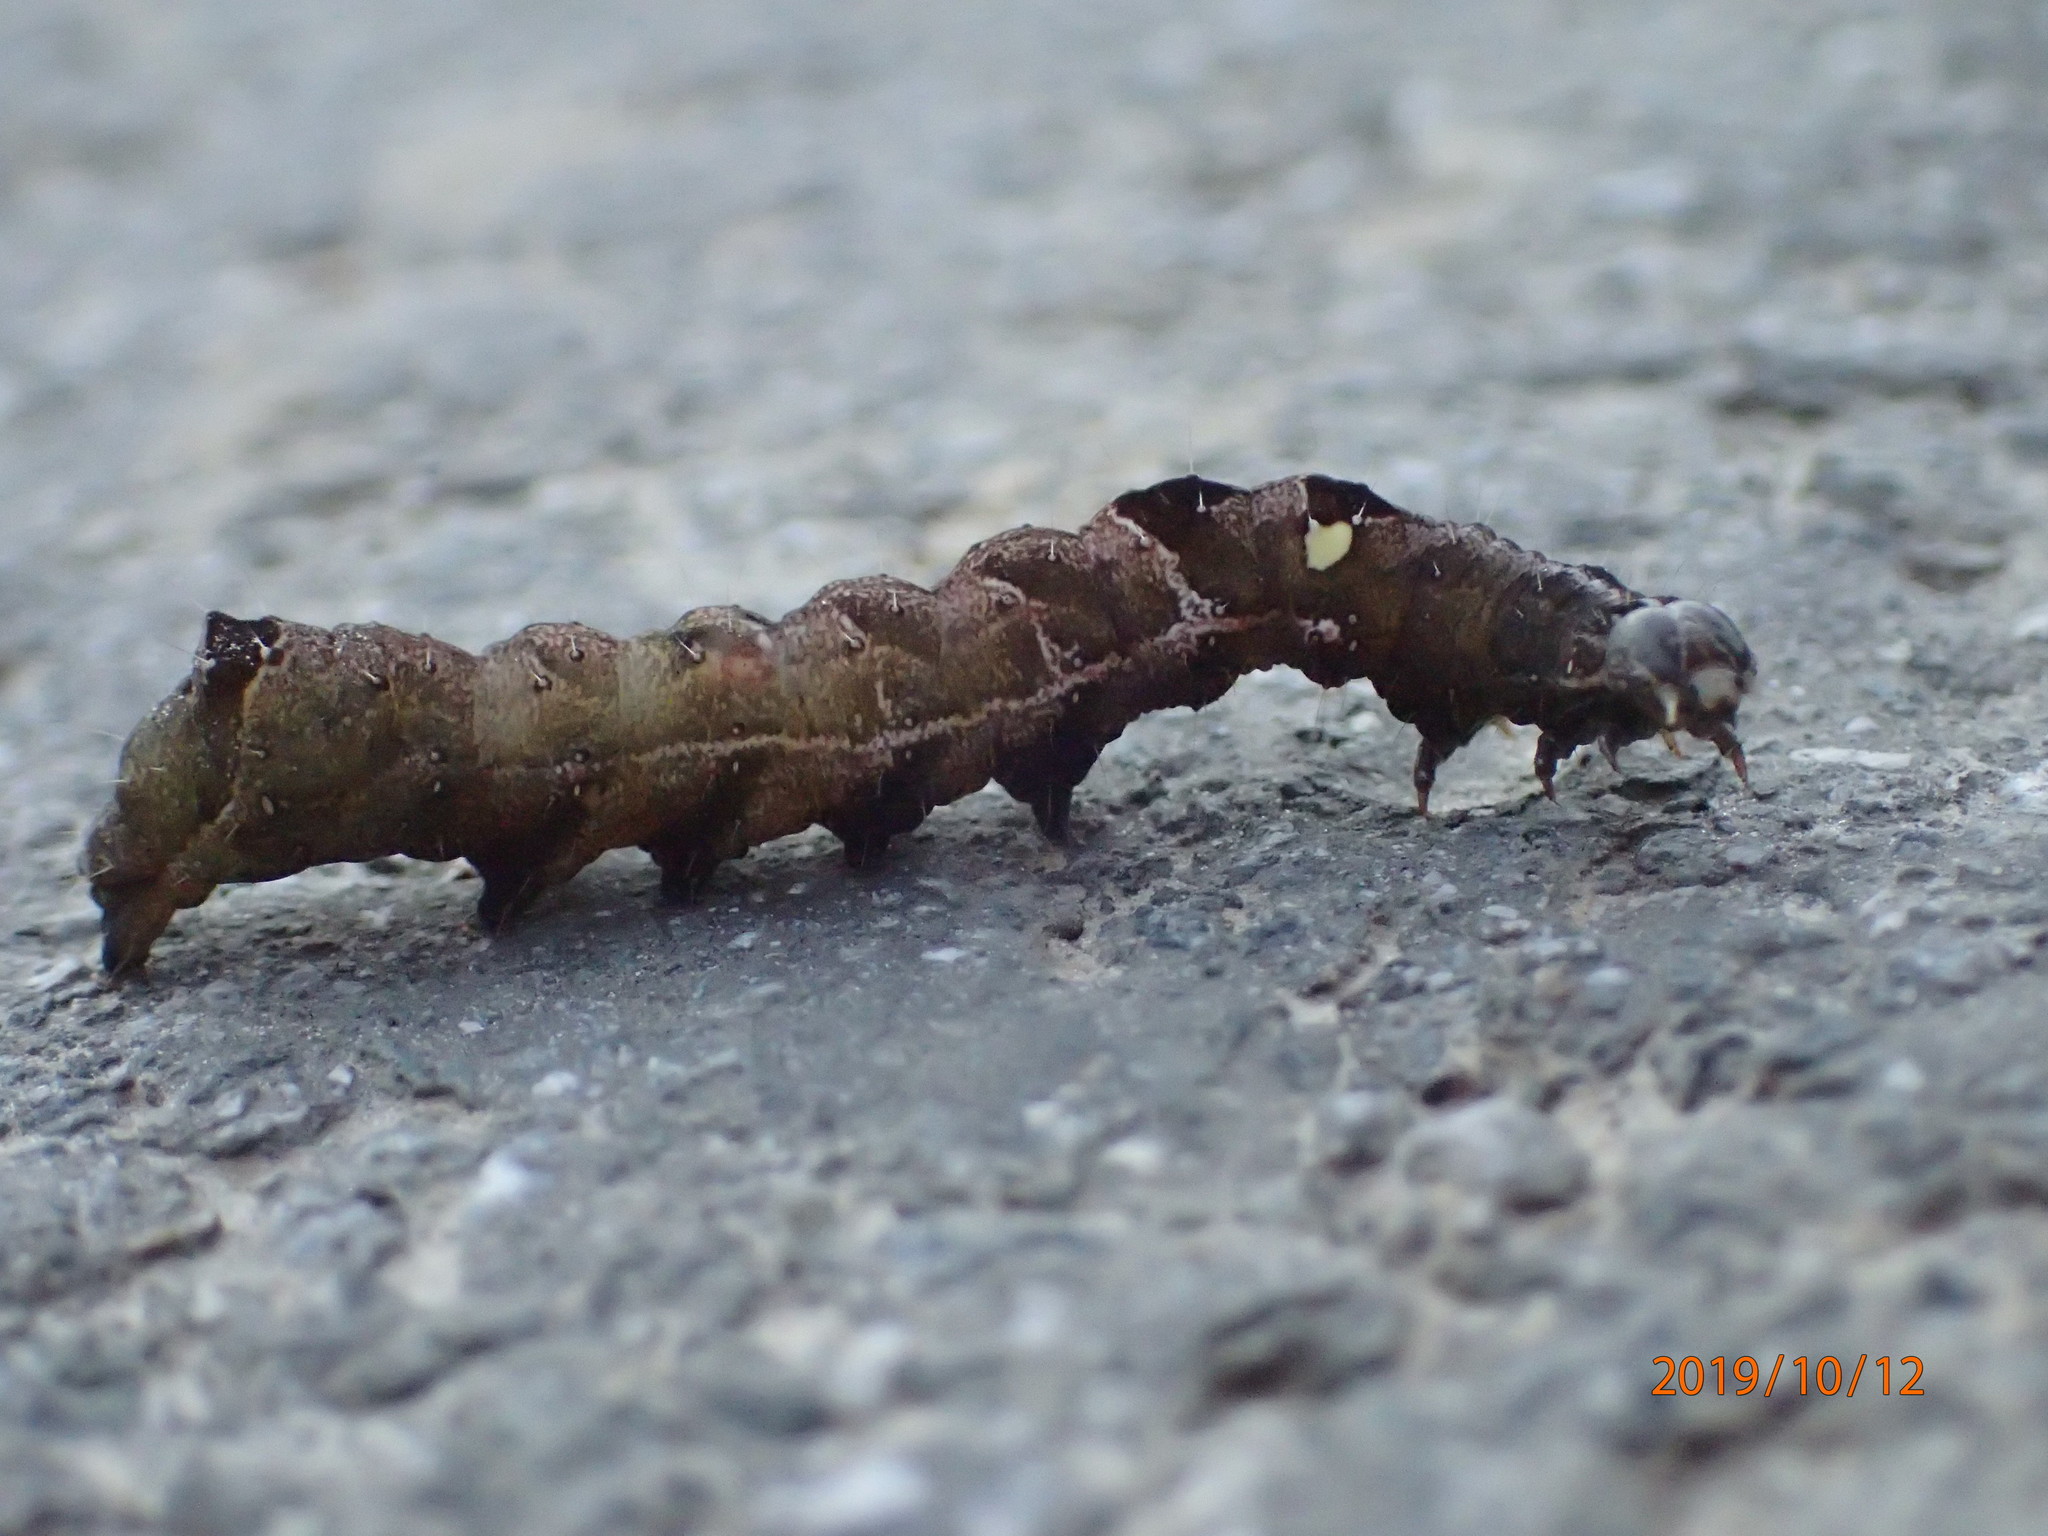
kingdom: Animalia
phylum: Arthropoda
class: Insecta
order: Lepidoptera
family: Noctuidae
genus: Abrostola
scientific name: Abrostola triplasia
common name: Dark spectacle
